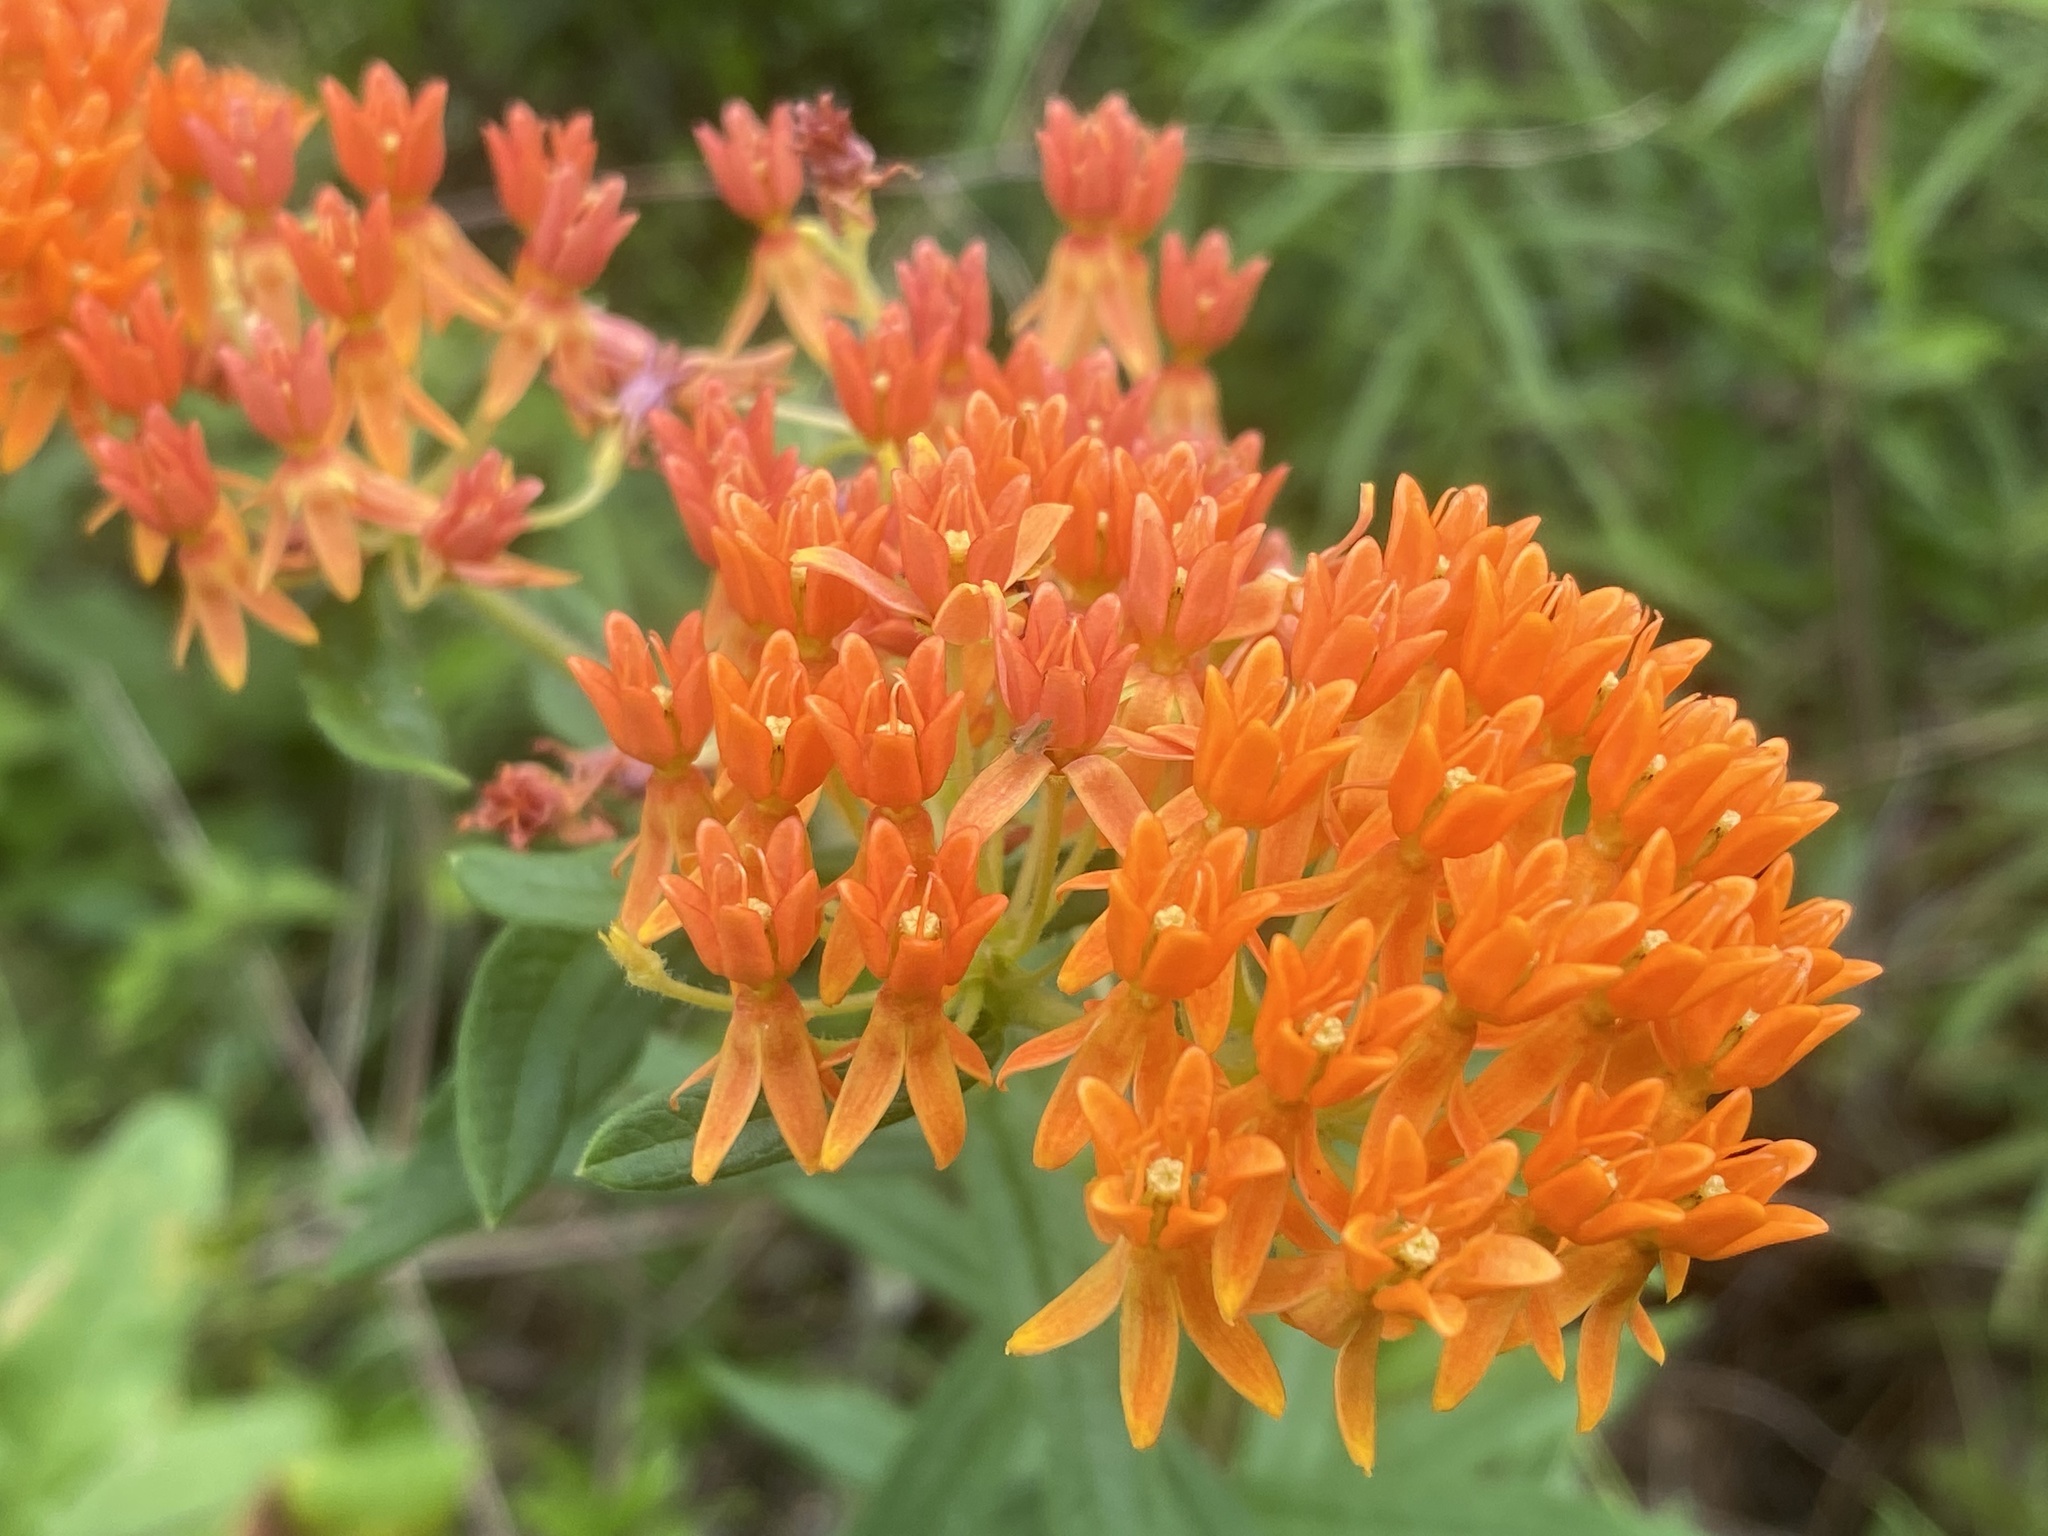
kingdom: Plantae
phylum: Tracheophyta
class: Magnoliopsida
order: Gentianales
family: Apocynaceae
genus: Asclepias
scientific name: Asclepias tuberosa
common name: Butterfly milkweed
